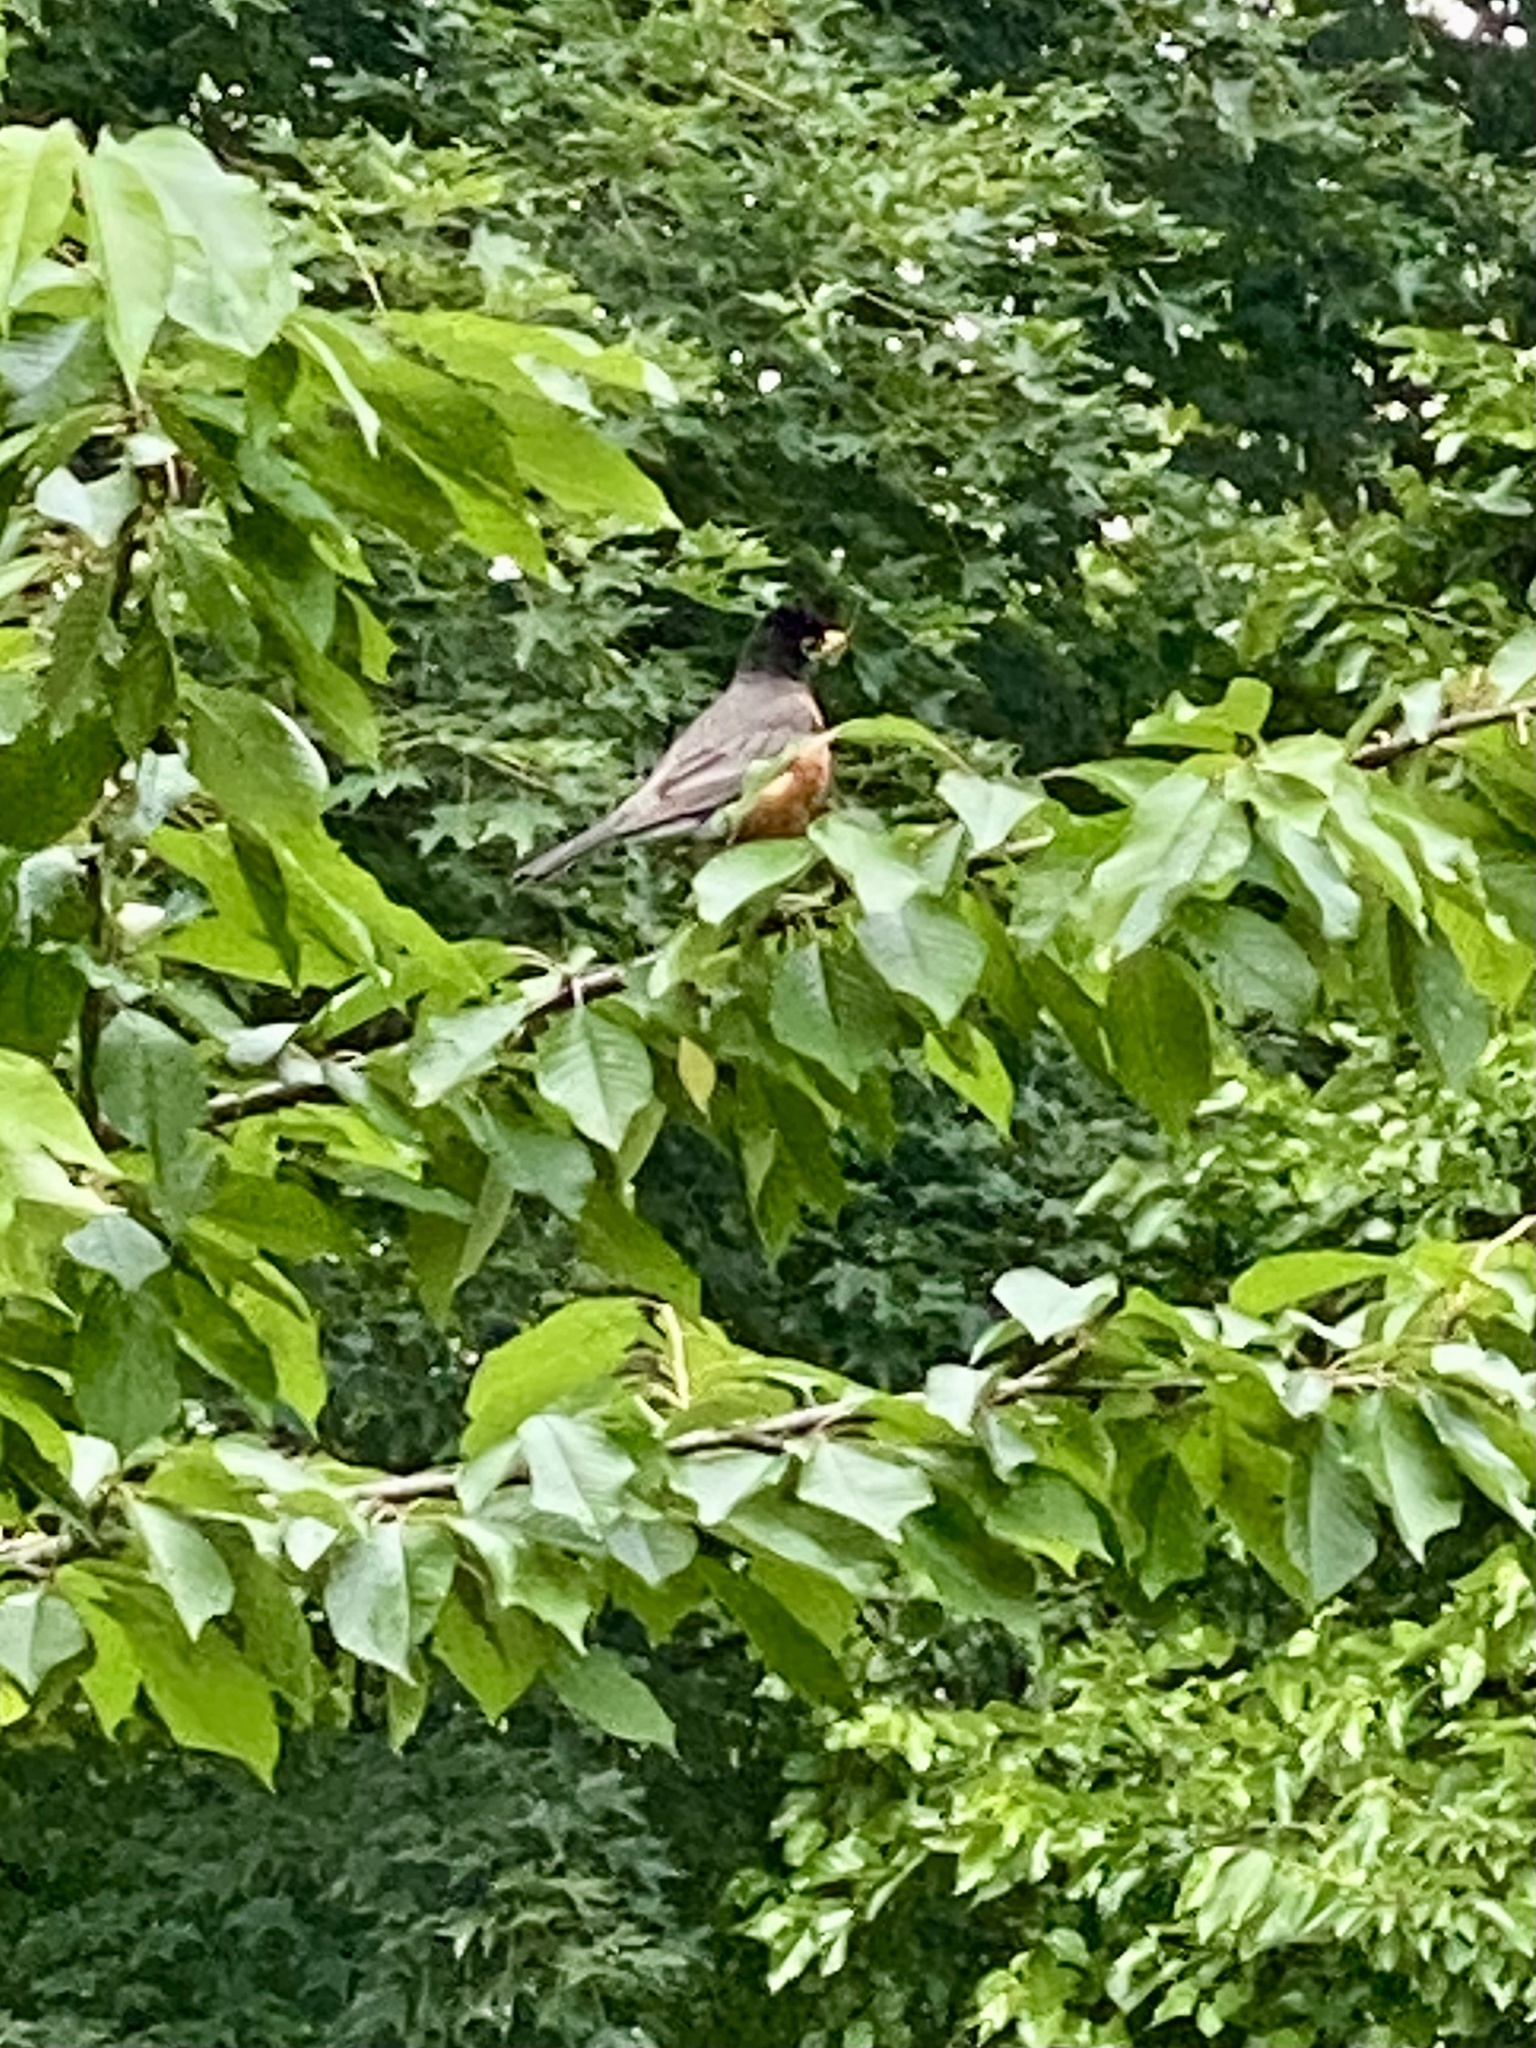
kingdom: Animalia
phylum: Chordata
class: Aves
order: Passeriformes
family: Turdidae
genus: Turdus
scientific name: Turdus migratorius
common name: American robin
